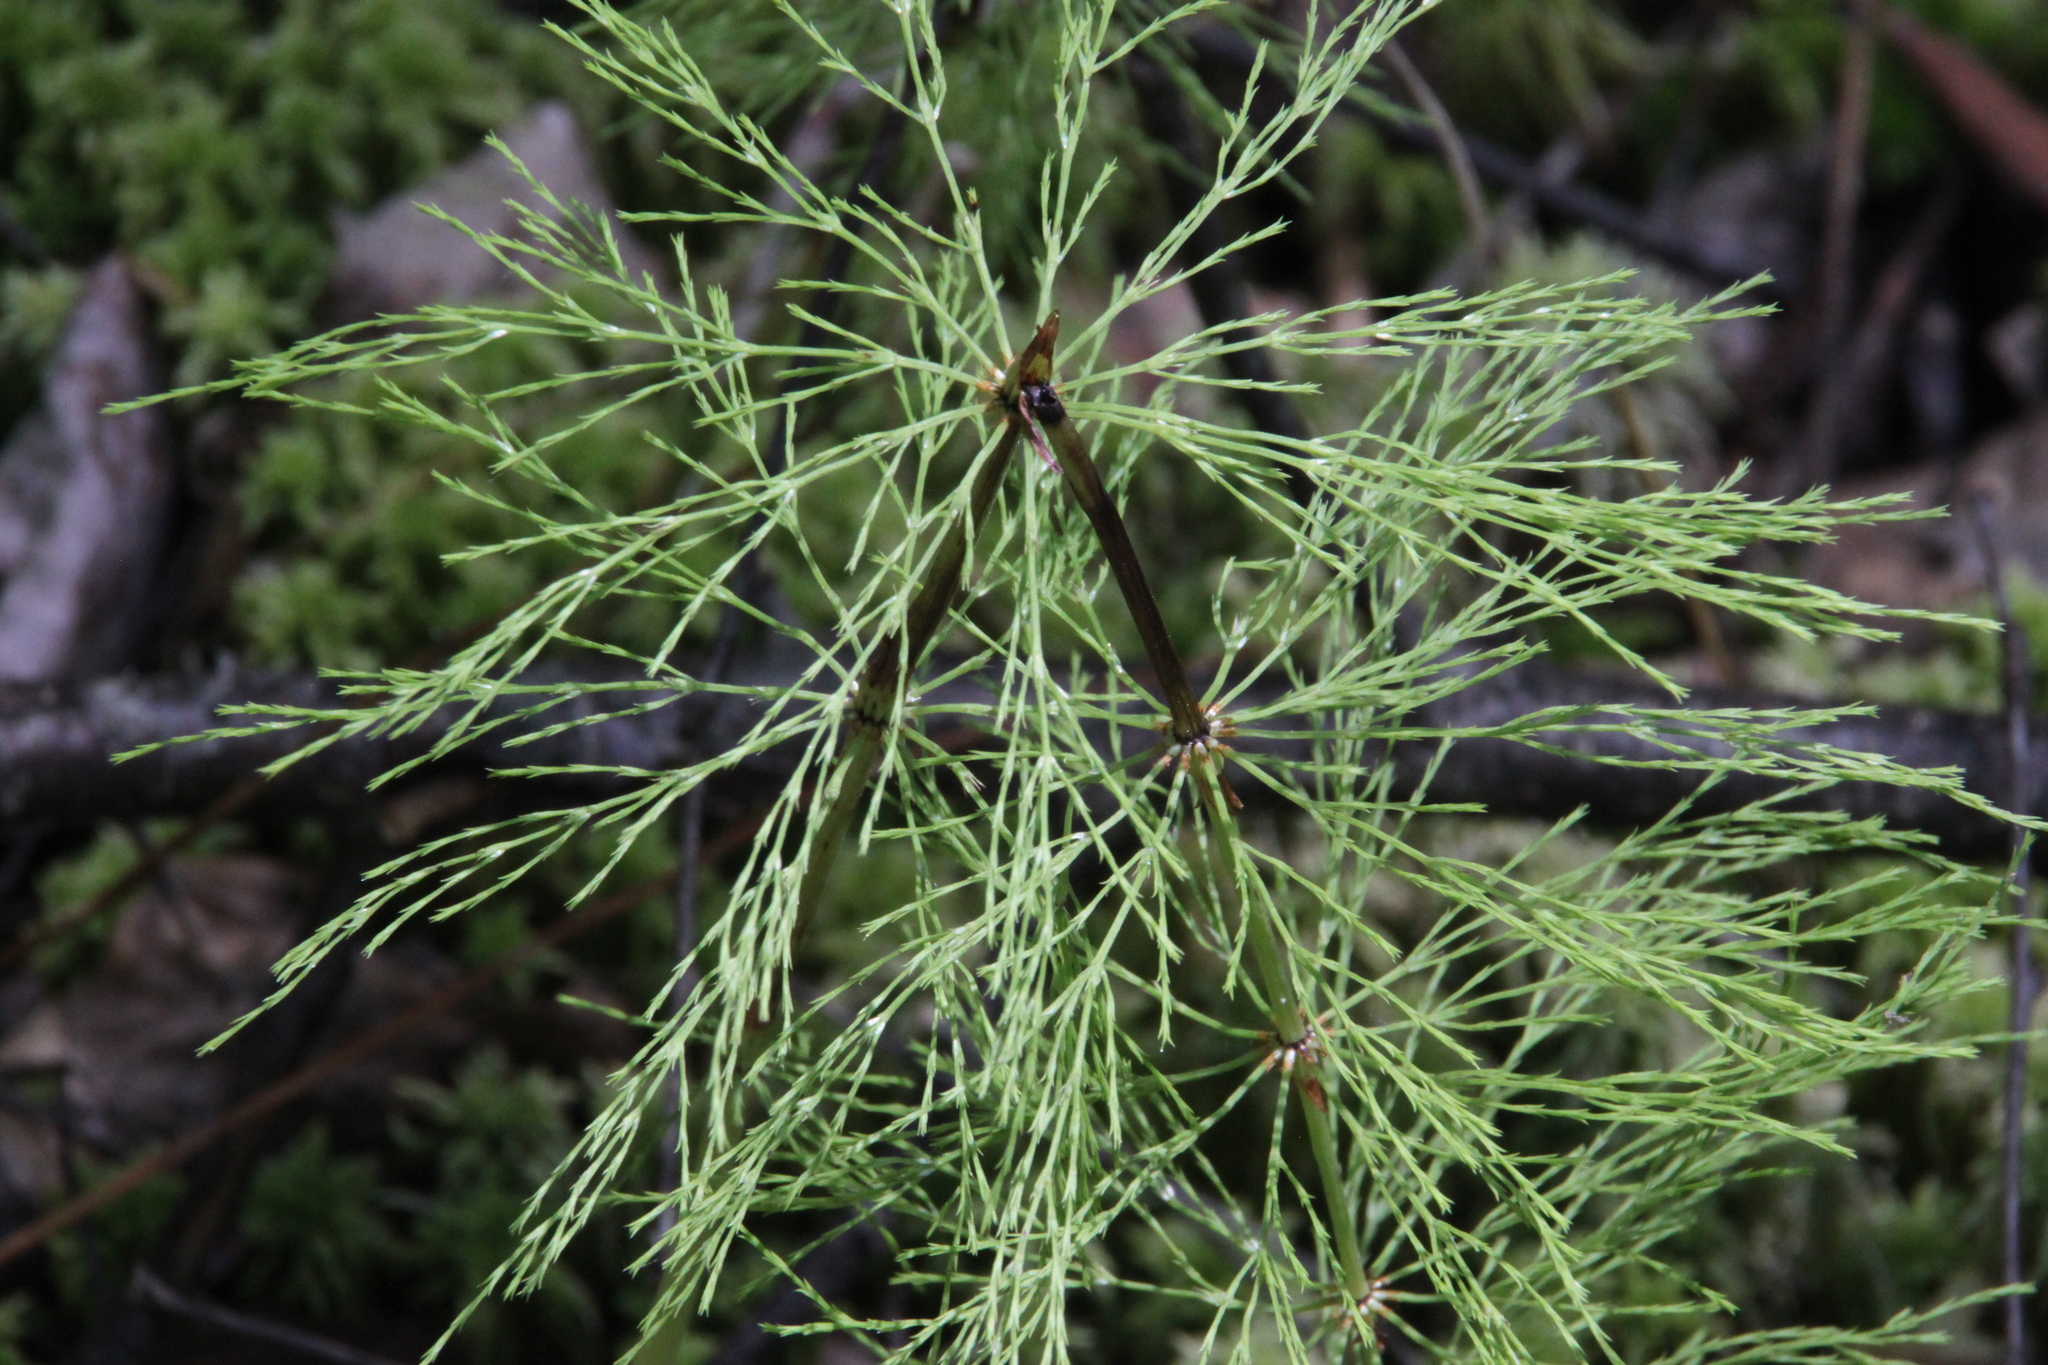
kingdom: Plantae
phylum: Tracheophyta
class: Polypodiopsida
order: Equisetales
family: Equisetaceae
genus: Equisetum
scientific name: Equisetum sylvaticum
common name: Wood horsetail
